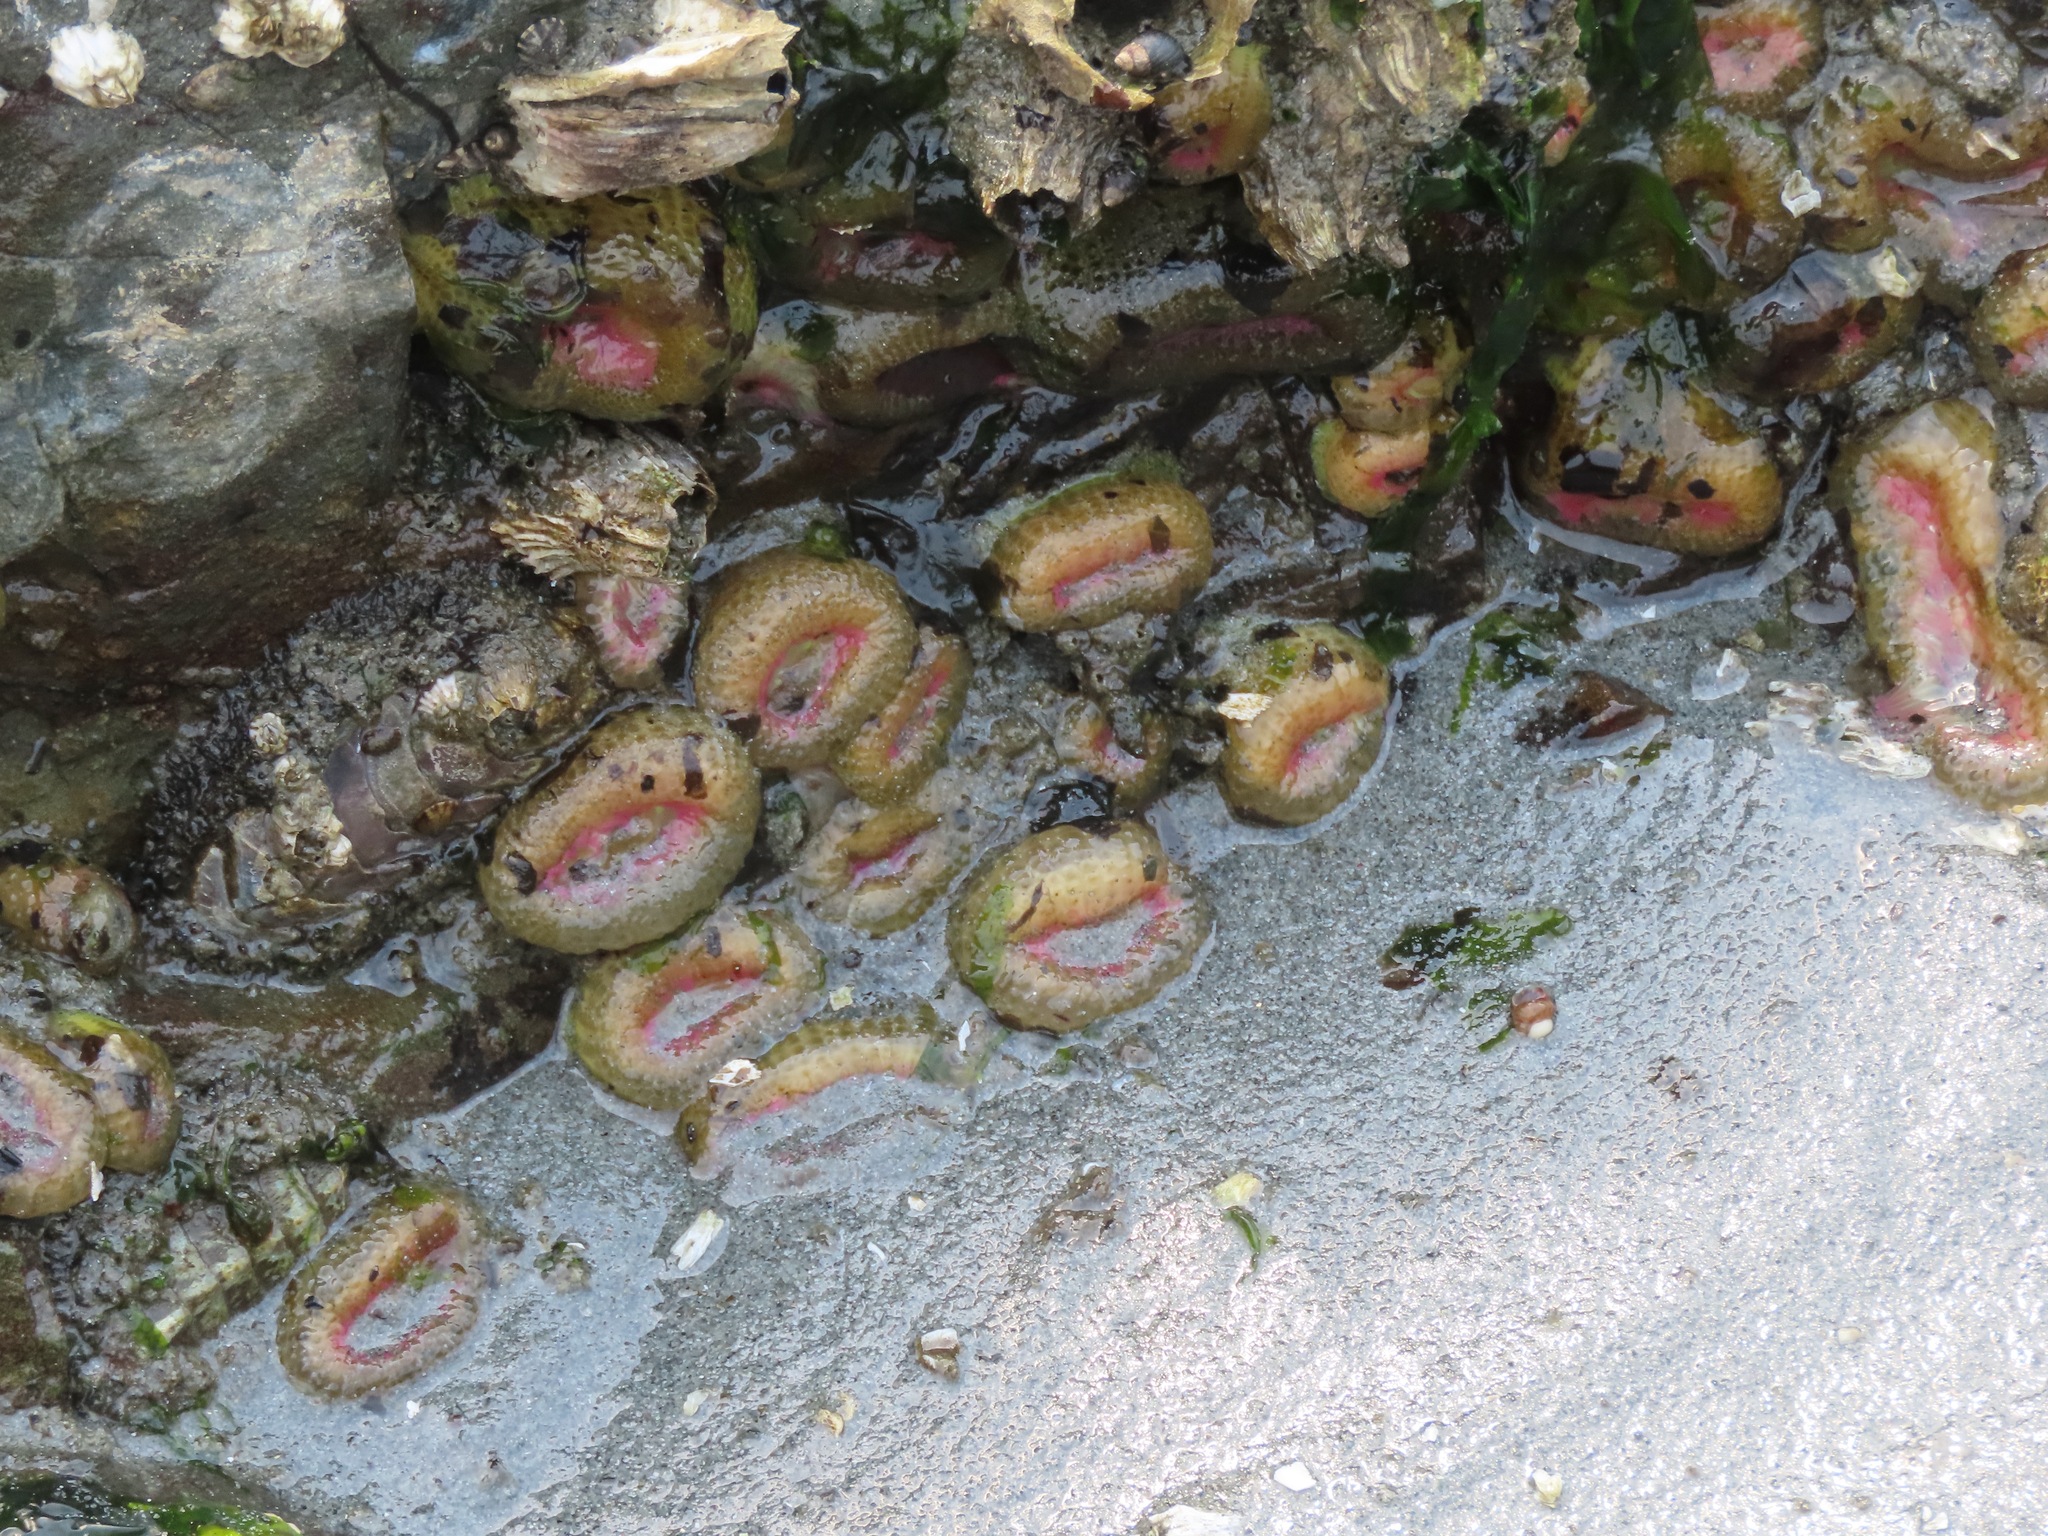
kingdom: Animalia
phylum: Cnidaria
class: Anthozoa
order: Actiniaria
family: Actiniidae
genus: Anthopleura
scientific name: Anthopleura elegantissima
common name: Clonal anemone
